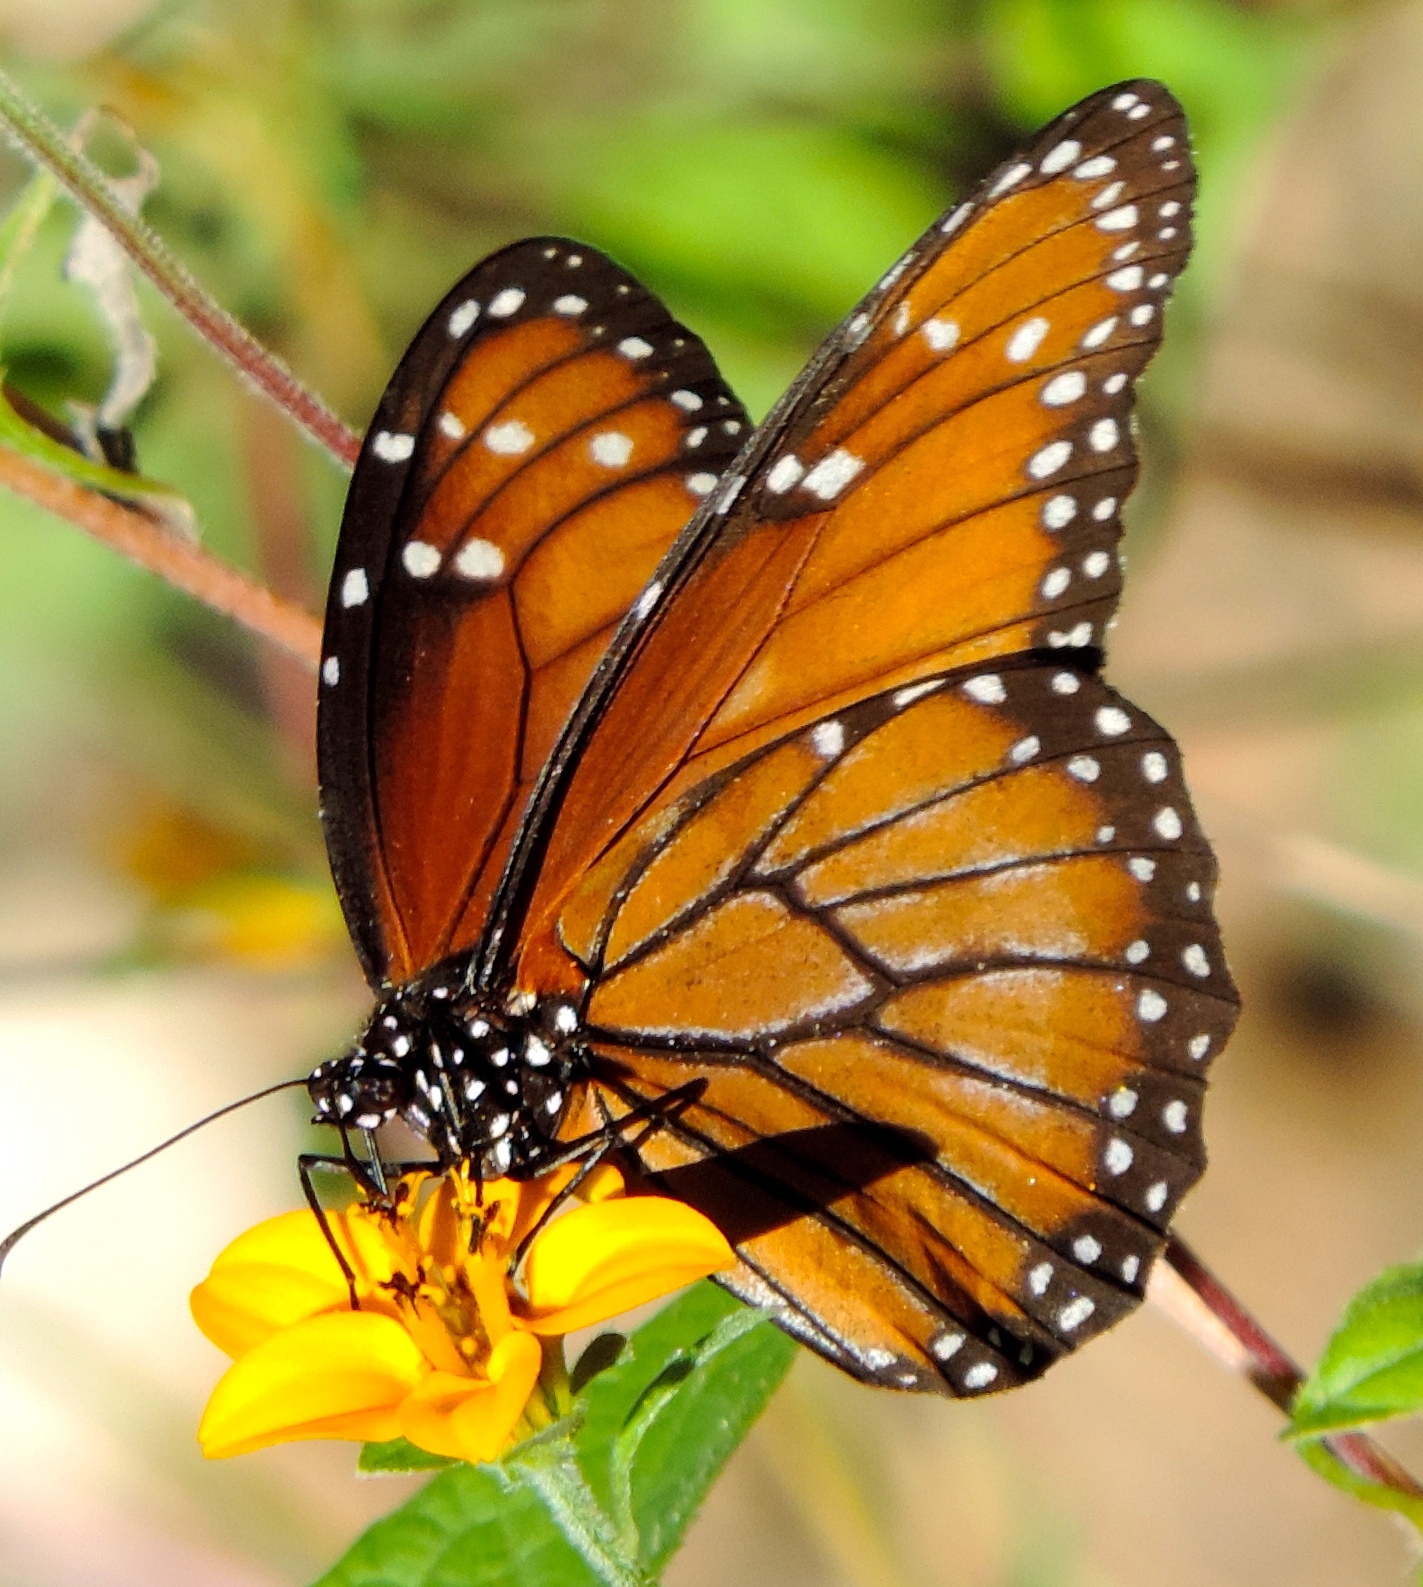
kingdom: Animalia
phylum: Arthropoda
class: Insecta
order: Lepidoptera
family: Nymphalidae
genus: Danaus
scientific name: Danaus eresimus
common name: Soldier
